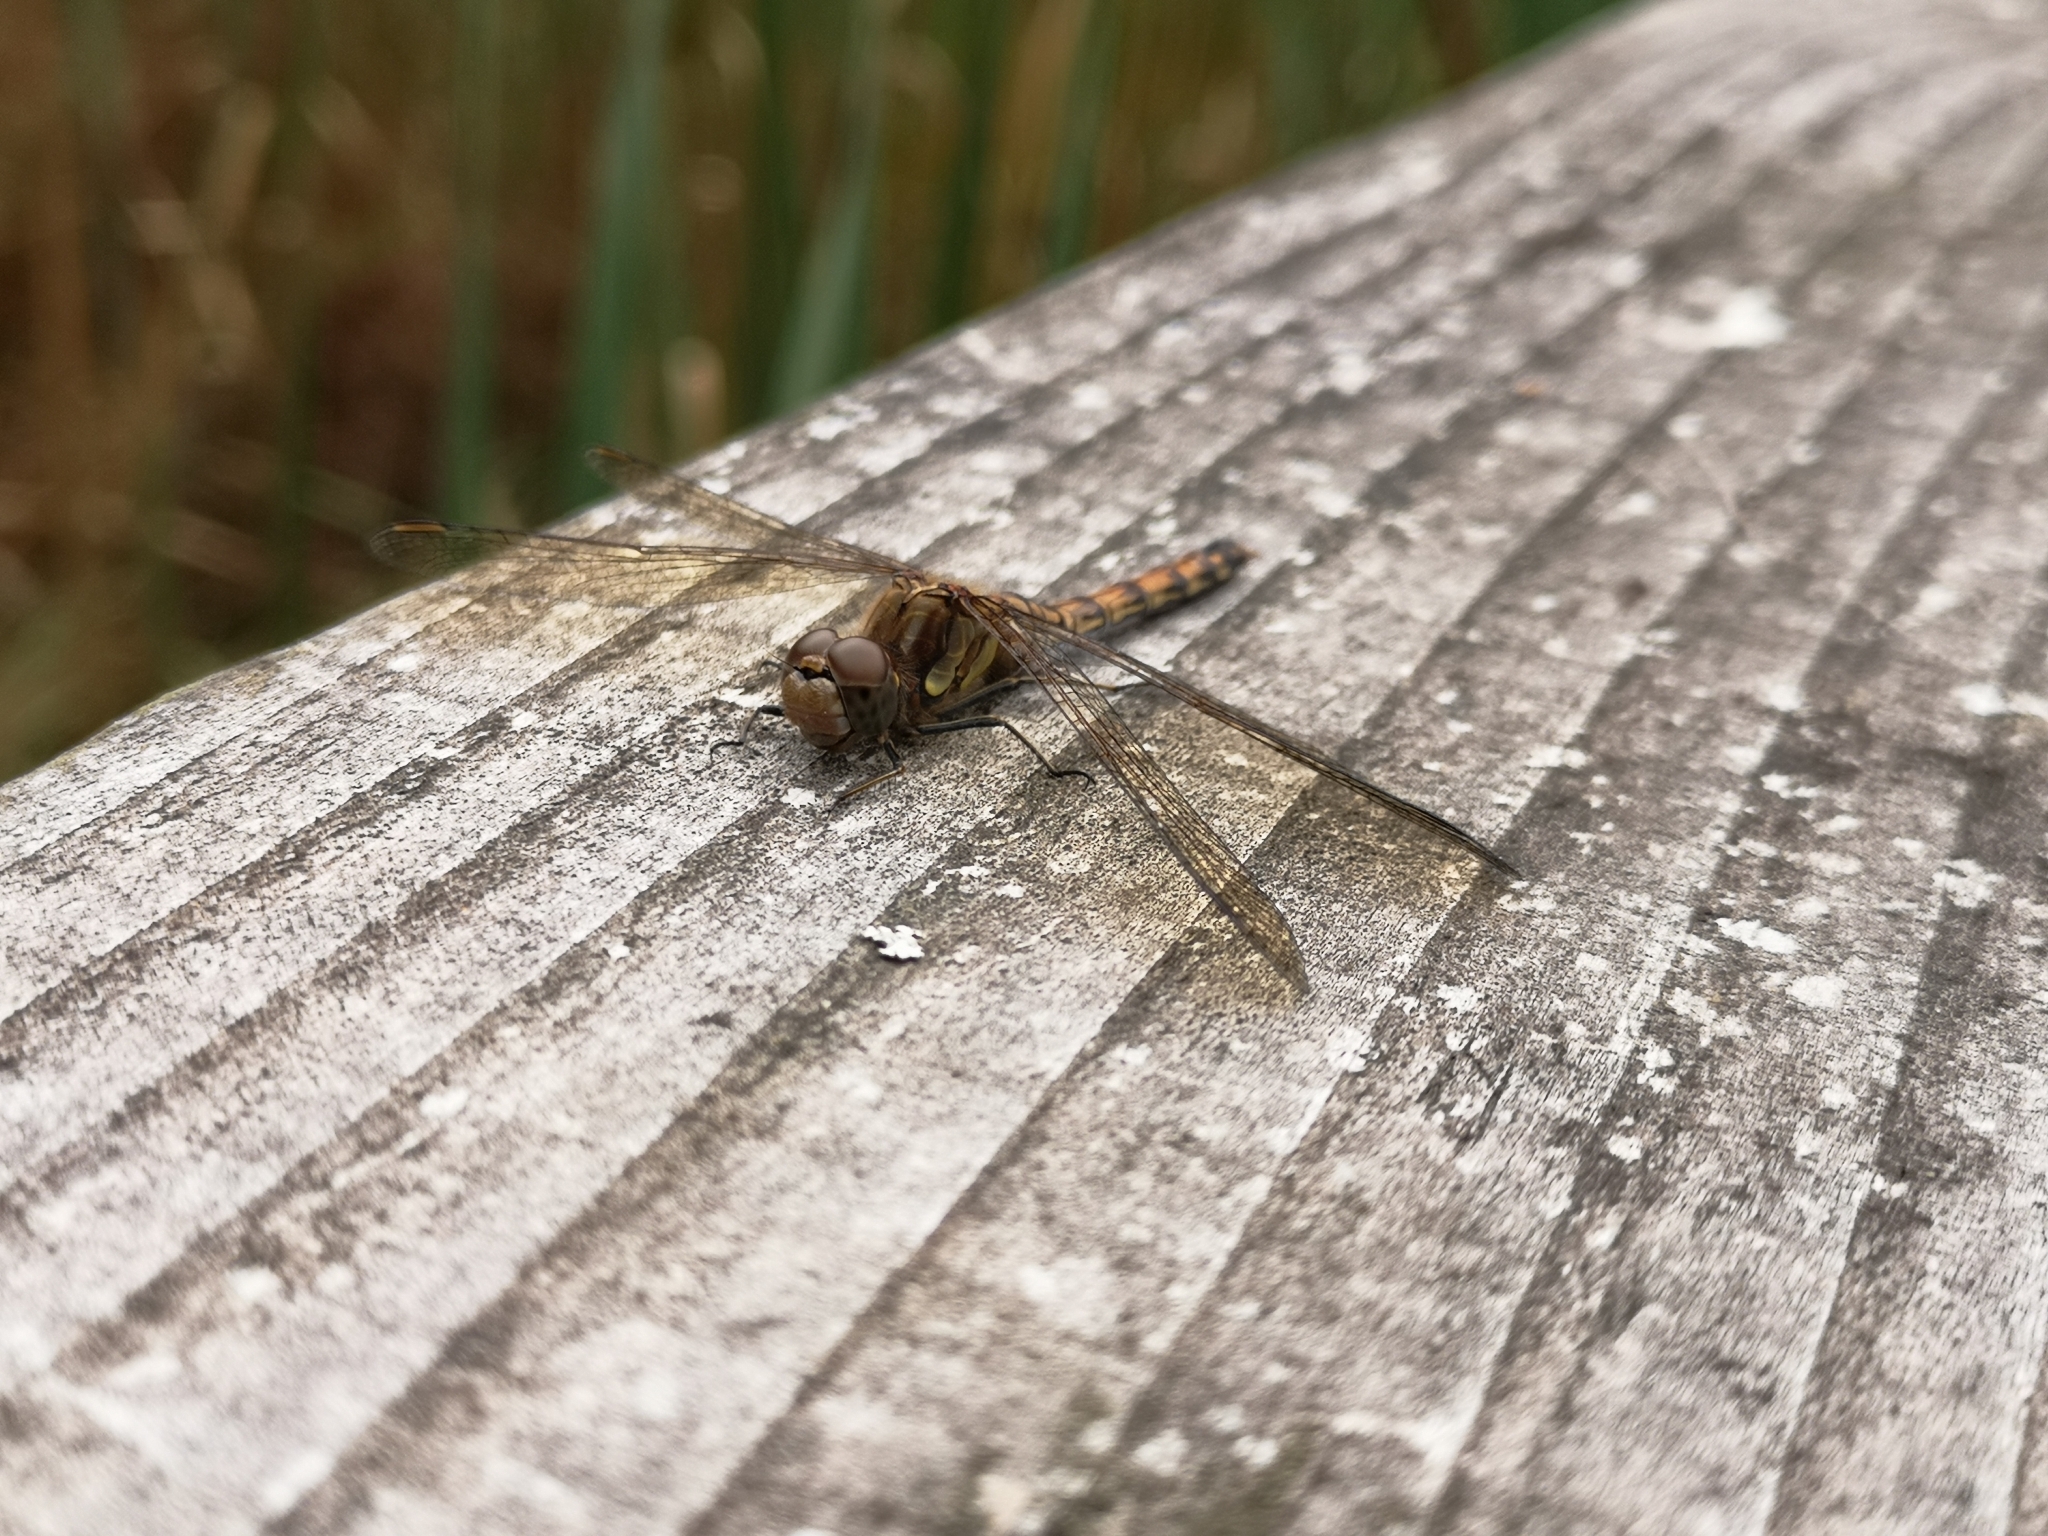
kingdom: Animalia
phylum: Arthropoda
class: Insecta
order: Odonata
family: Libellulidae
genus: Sympetrum
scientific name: Sympetrum striolatum
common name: Common darter
